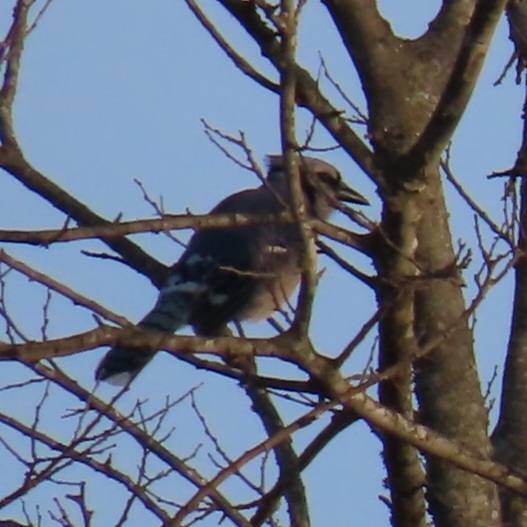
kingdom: Animalia
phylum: Chordata
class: Aves
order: Passeriformes
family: Corvidae
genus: Cyanocitta
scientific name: Cyanocitta cristata
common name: Blue jay
